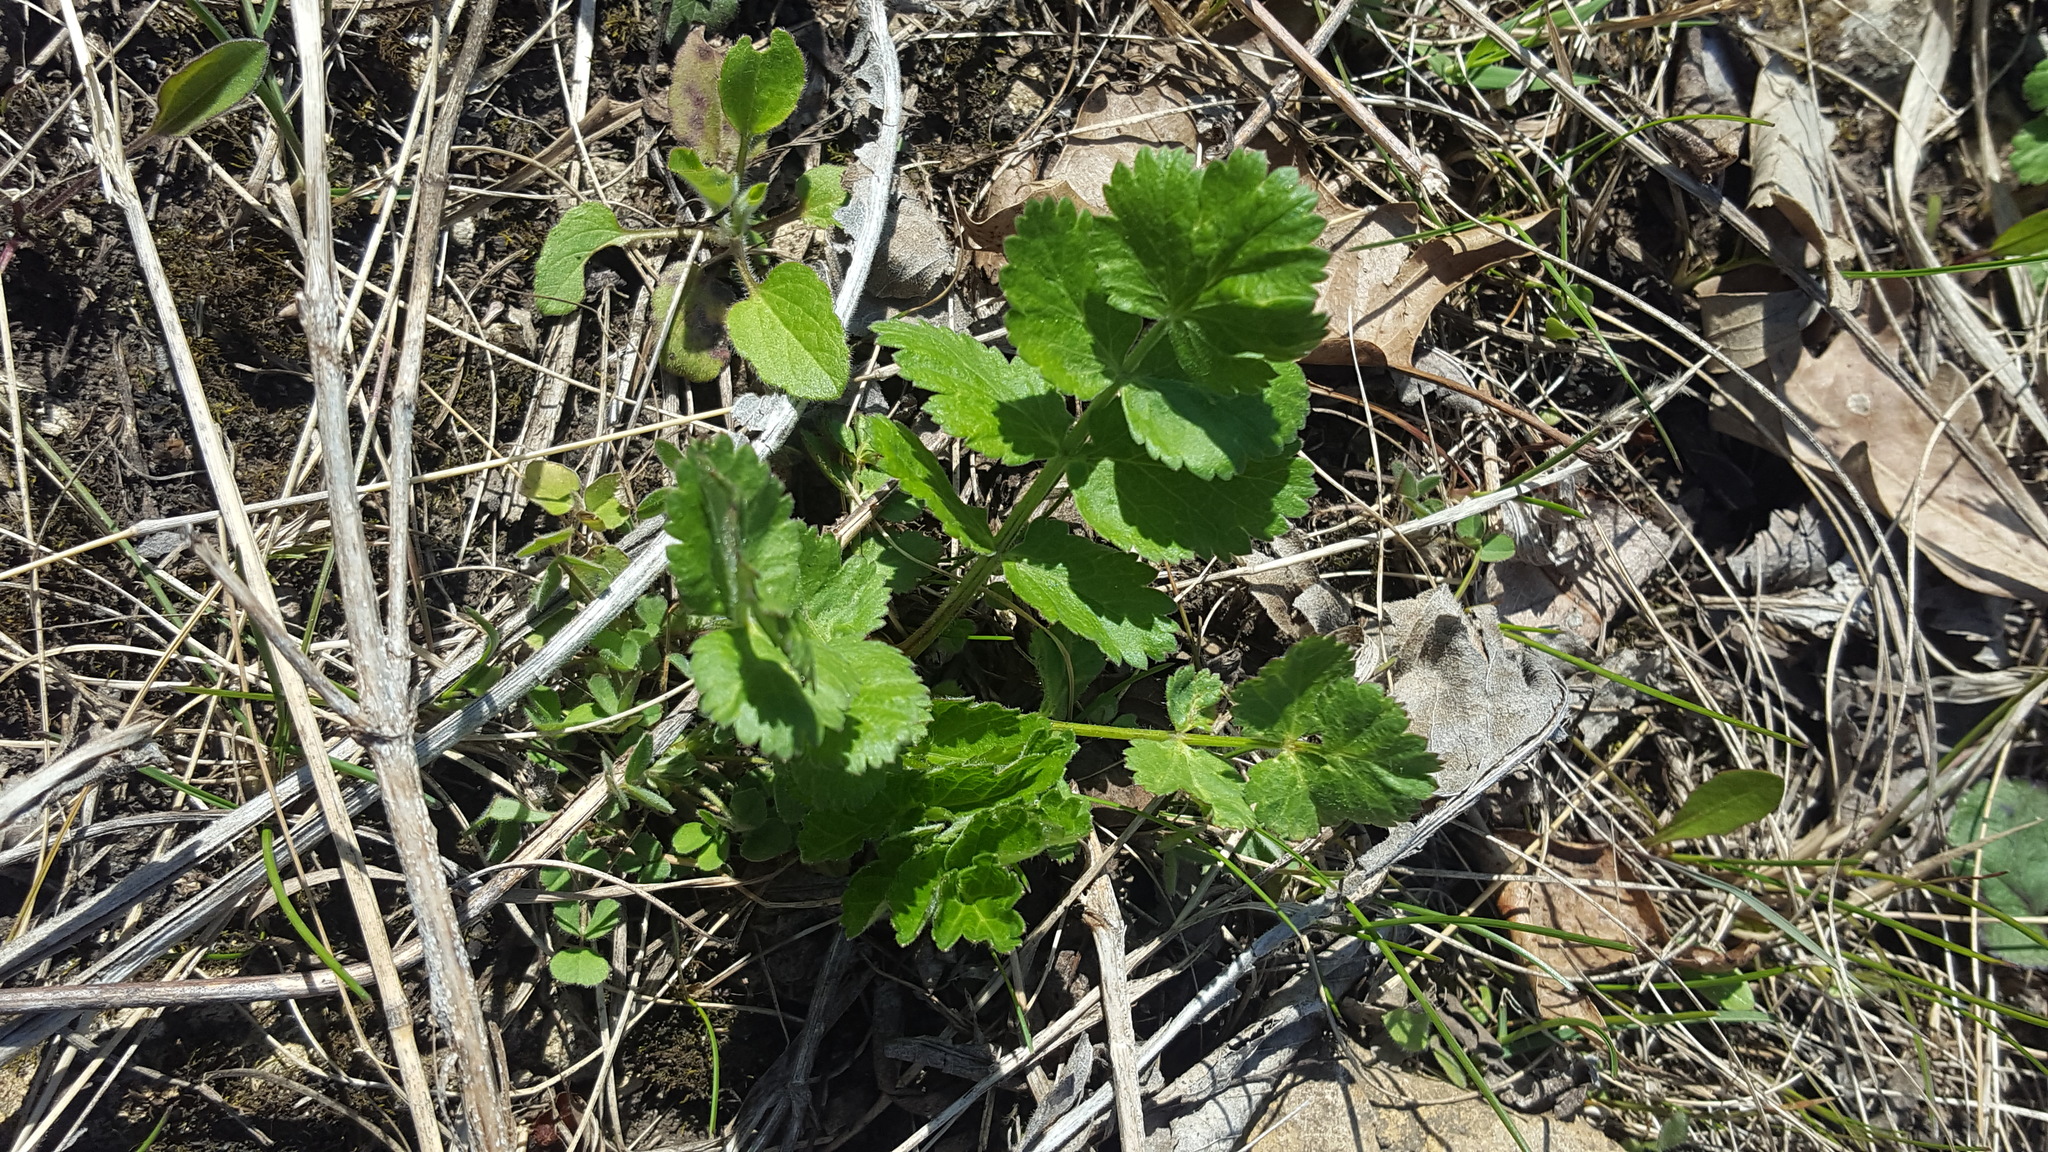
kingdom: Plantae
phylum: Tracheophyta
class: Magnoliopsida
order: Apiales
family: Apiaceae
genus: Pastinaca
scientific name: Pastinaca sativa
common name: Wild parsnip
